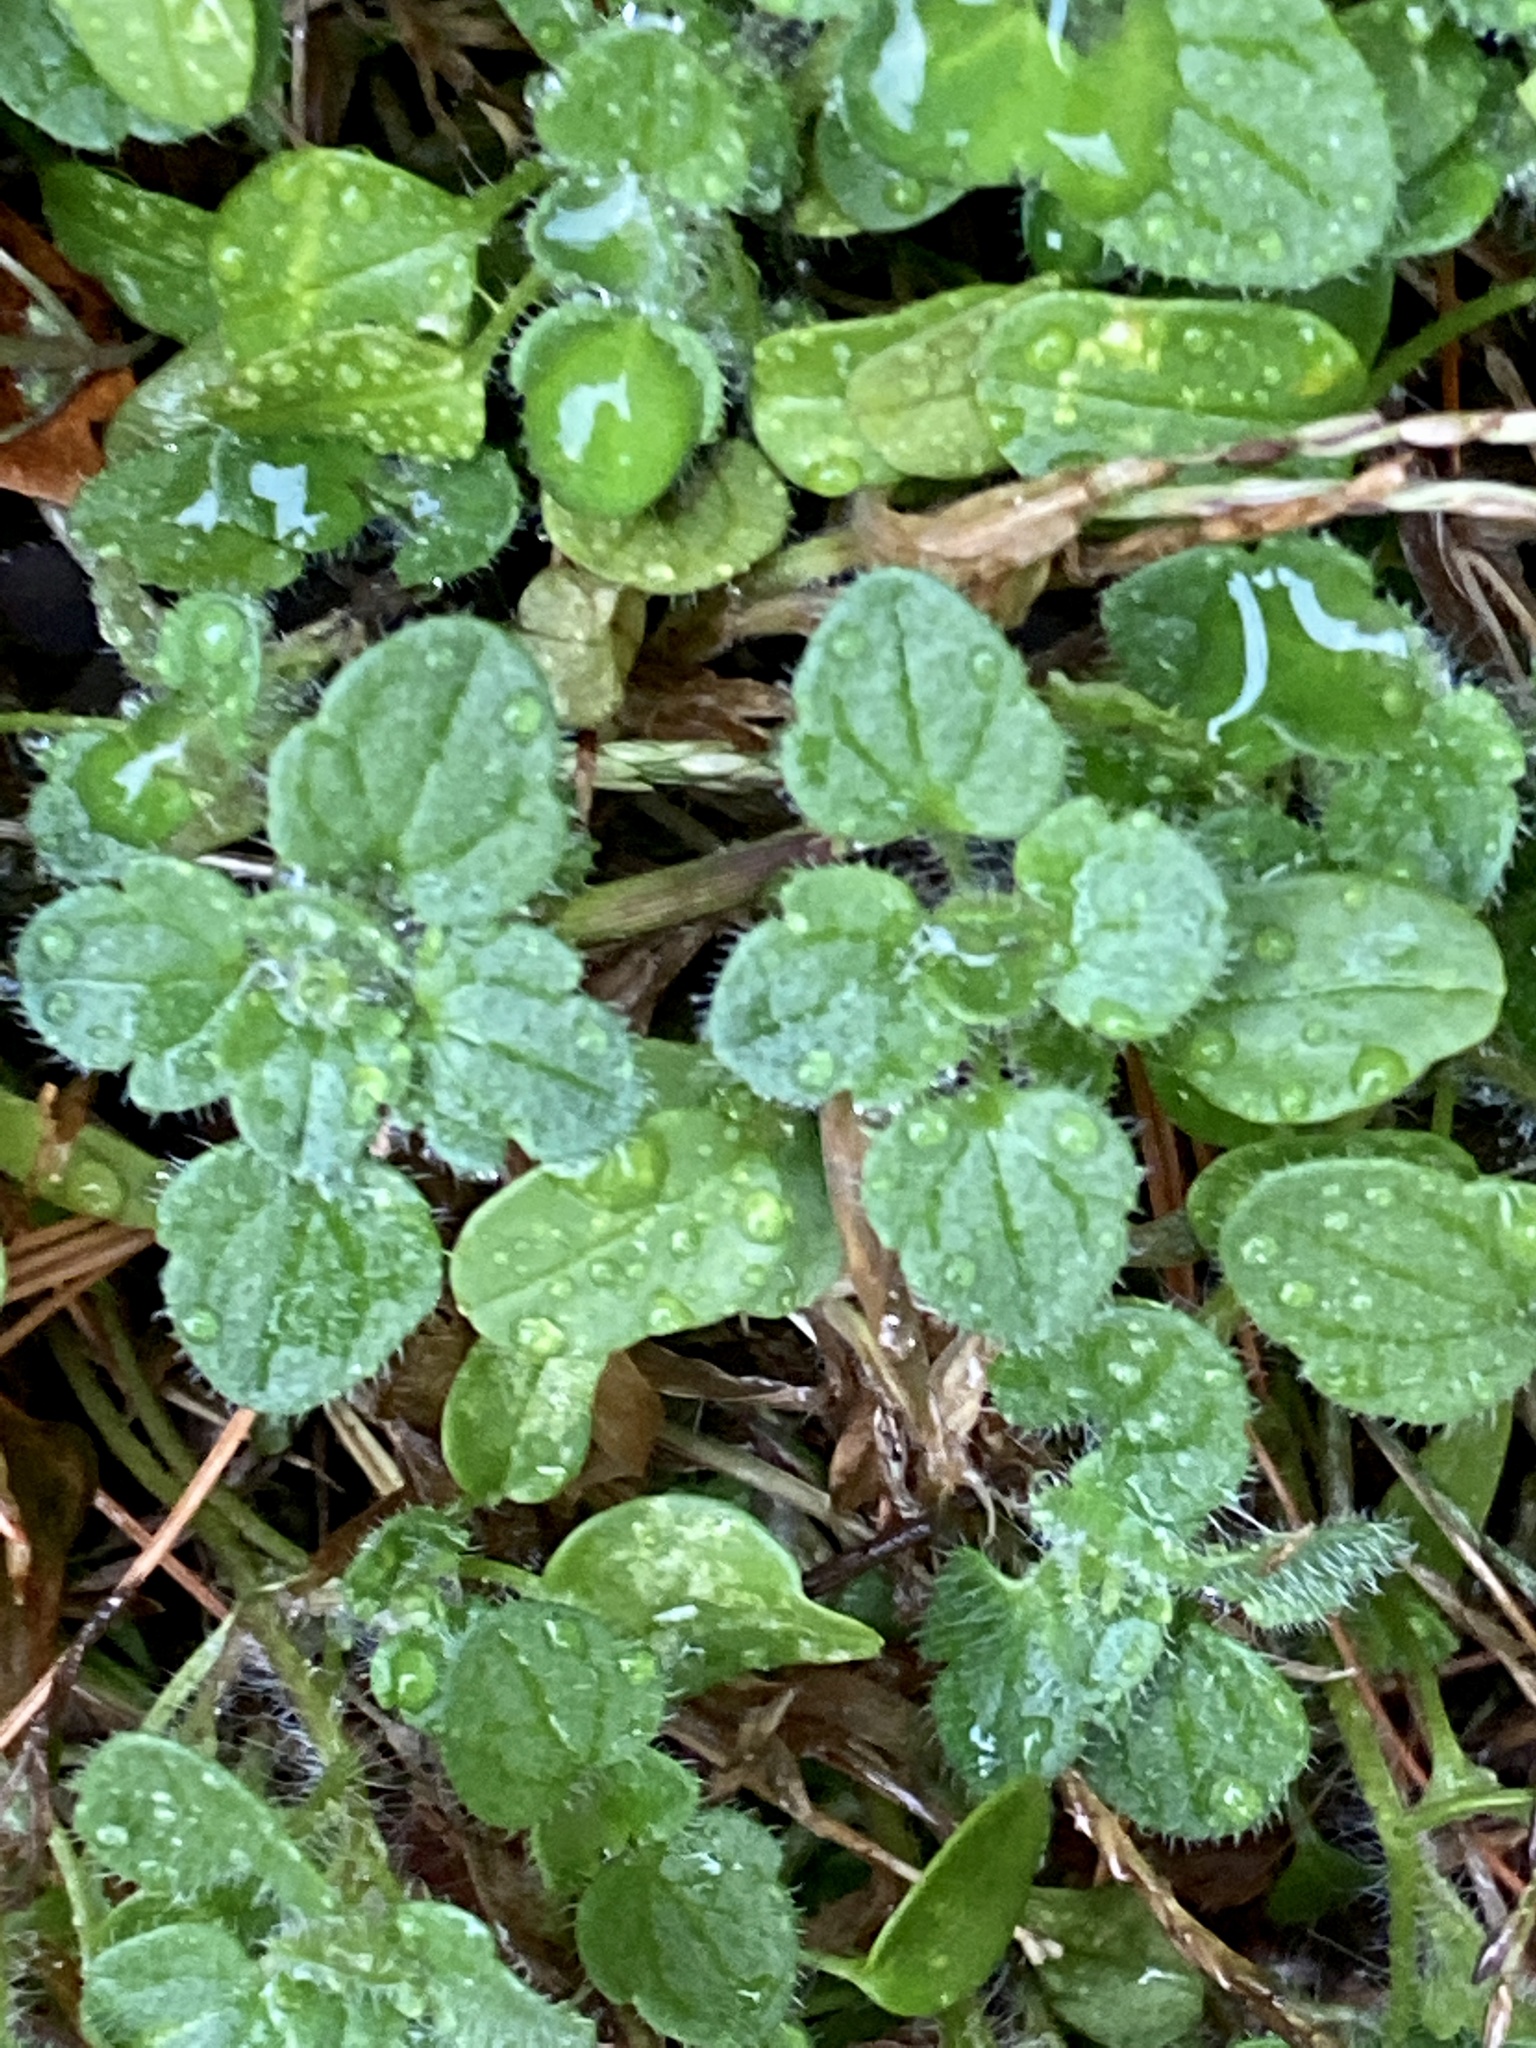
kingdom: Plantae
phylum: Tracheophyta
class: Magnoliopsida
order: Lamiales
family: Plantaginaceae
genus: Veronica
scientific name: Veronica hederifolia
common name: Ivy-leaved speedwell
